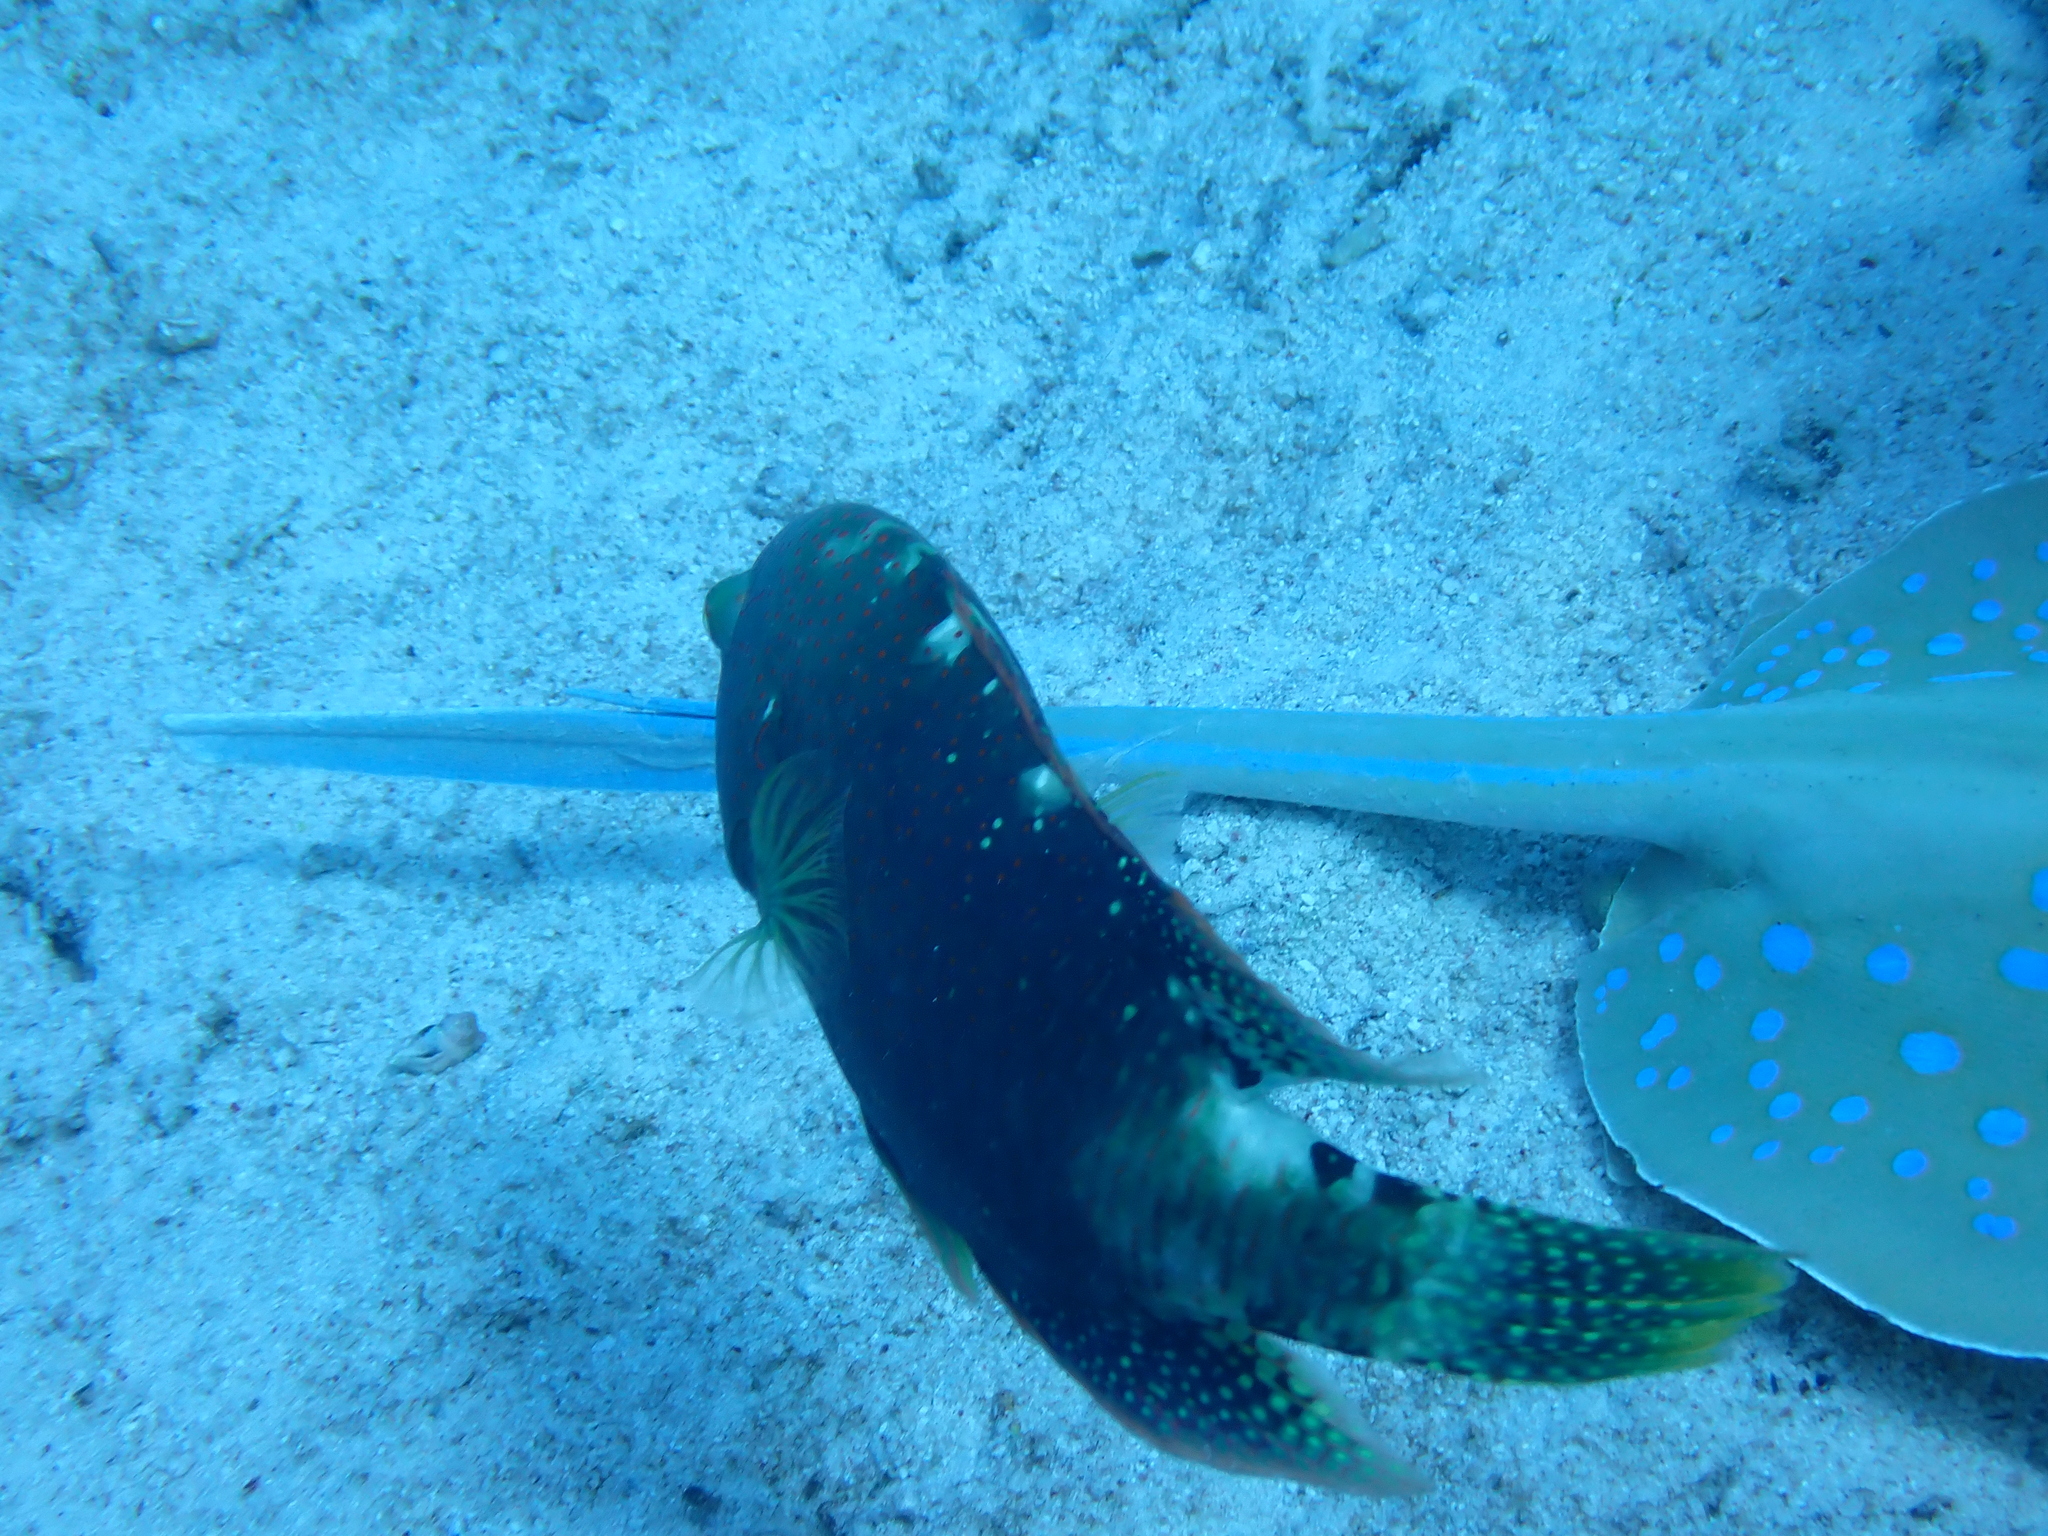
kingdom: Animalia
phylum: Chordata
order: Perciformes
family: Labridae
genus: Cheilinus
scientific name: Cheilinus abudjubbe
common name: Abudjubbe’s splendor wrasse
